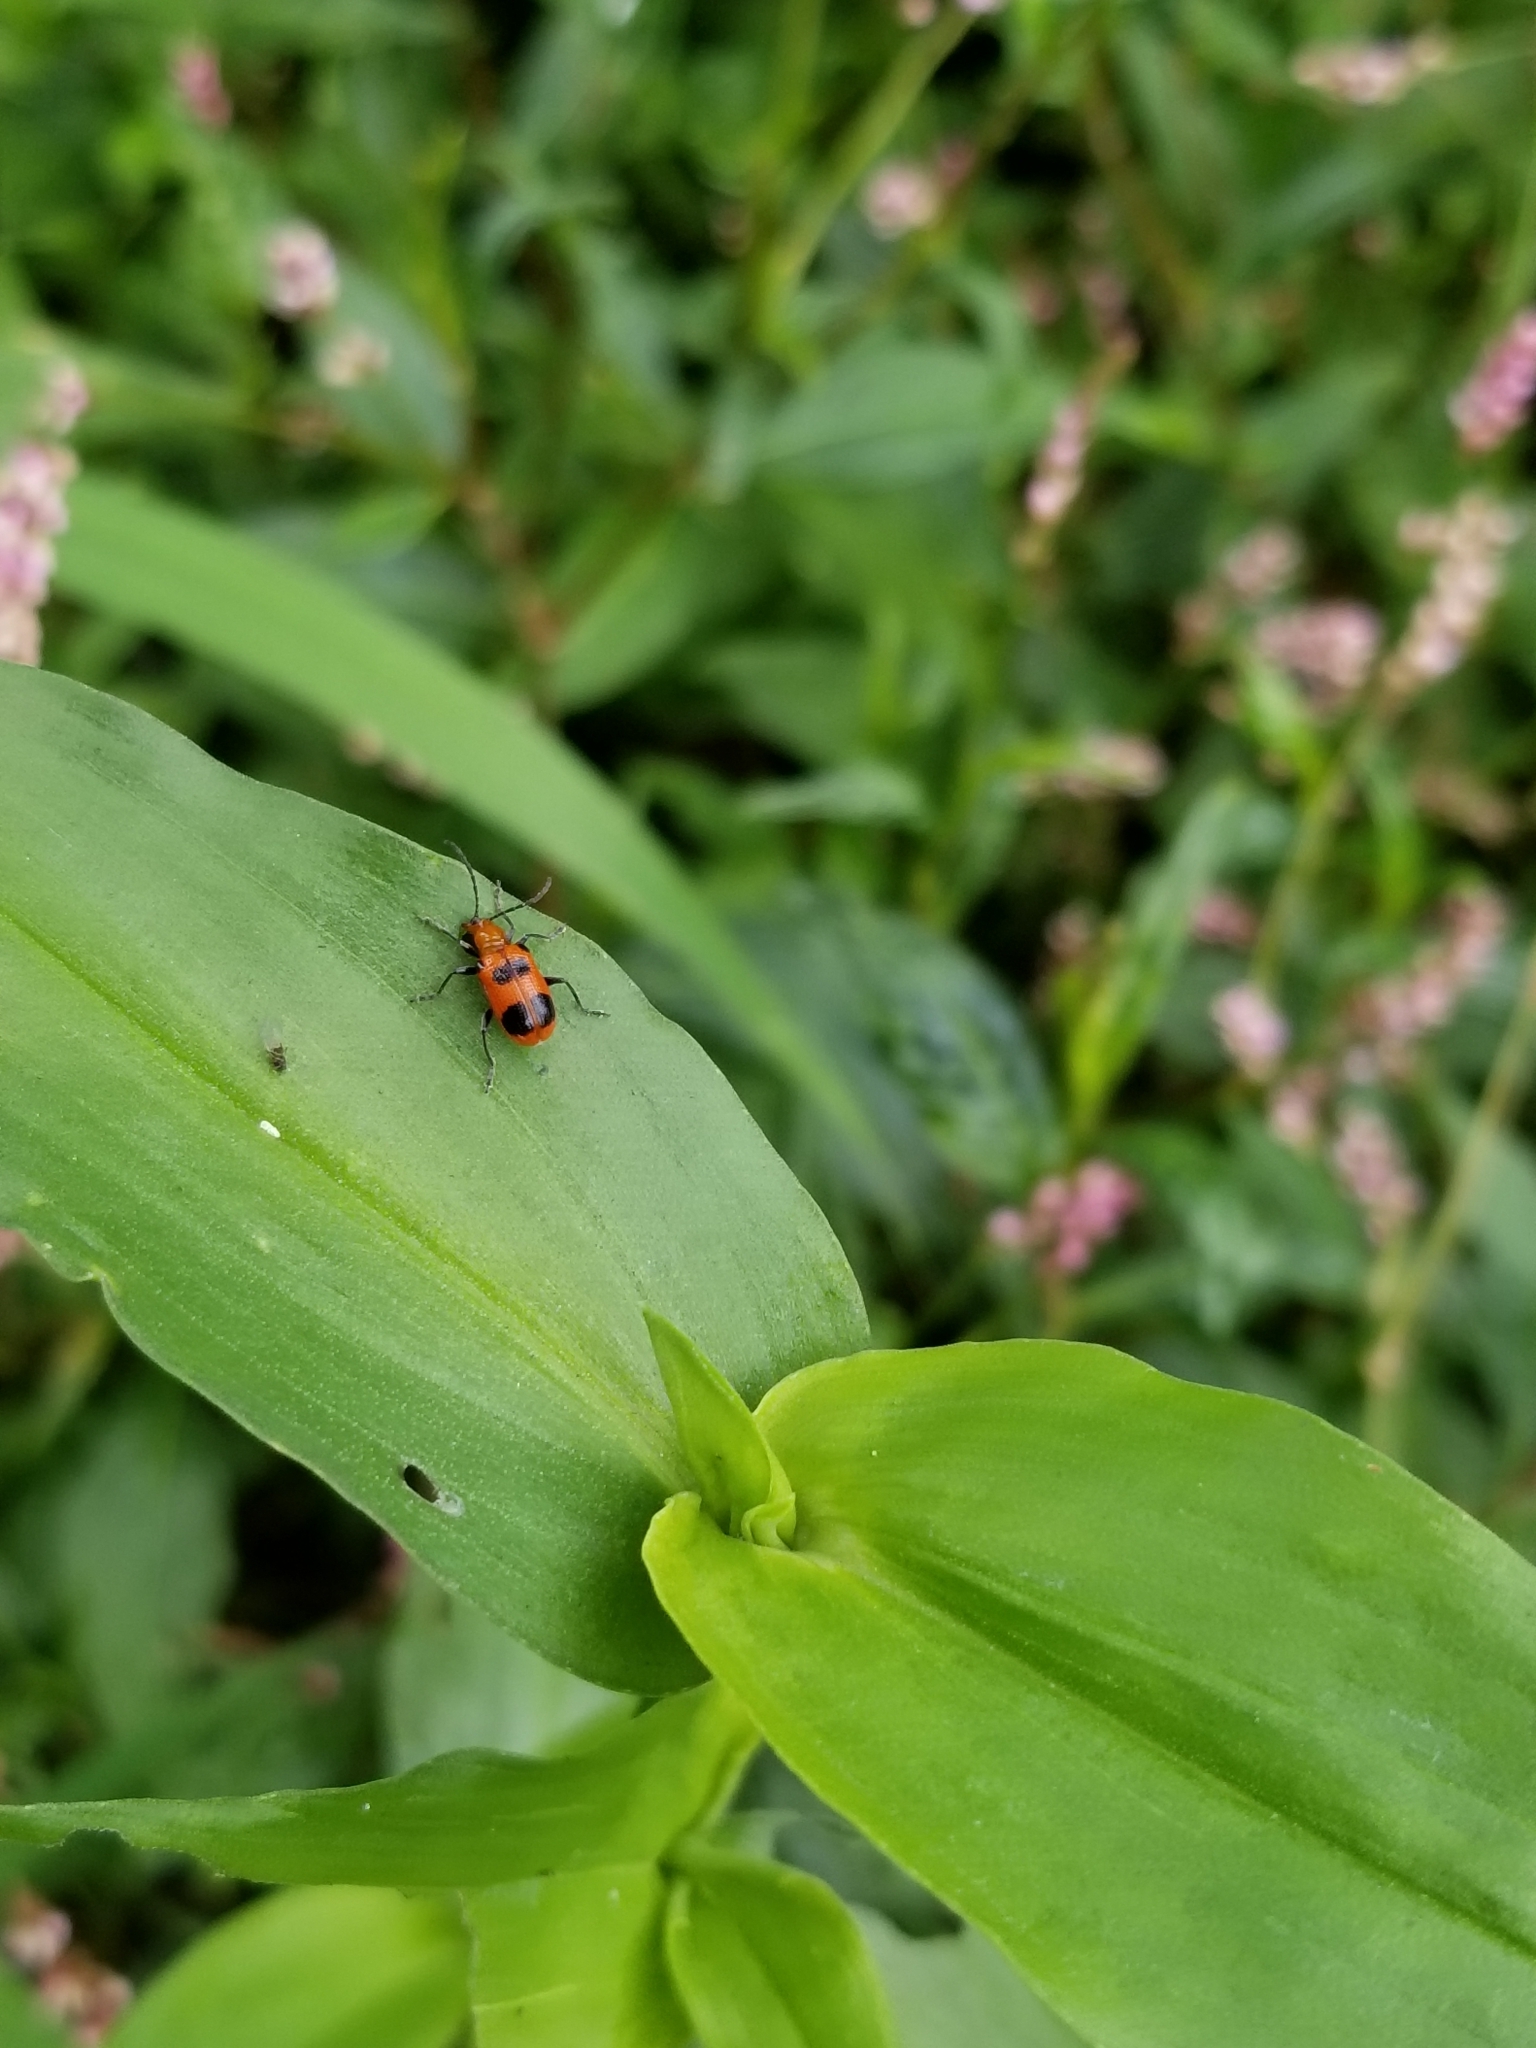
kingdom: Animalia
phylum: Arthropoda
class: Insecta
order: Coleoptera
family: Chrysomelidae
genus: Neolema
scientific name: Neolema sexpunctata
